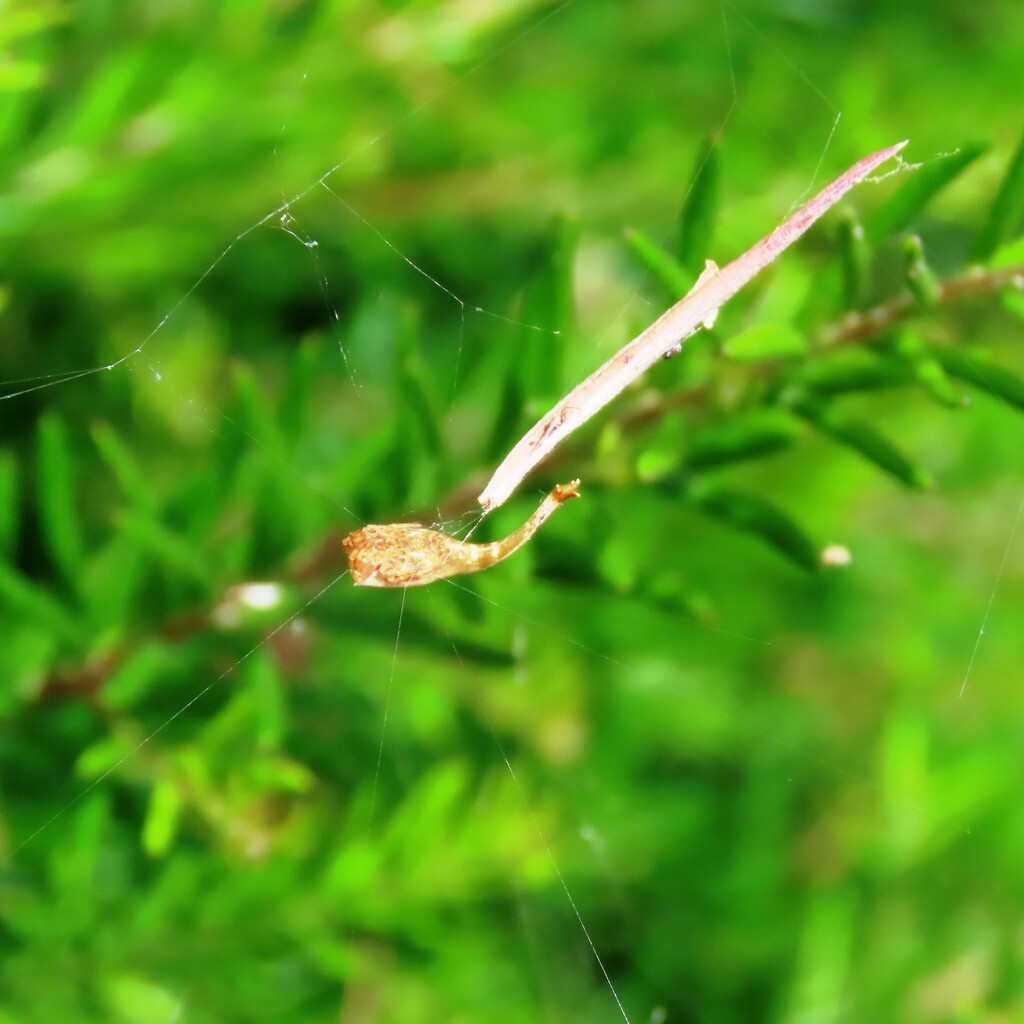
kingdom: Animalia
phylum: Arthropoda
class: Arachnida
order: Araneae
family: Araneidae
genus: Arachnura
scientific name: Arachnura higginsi
